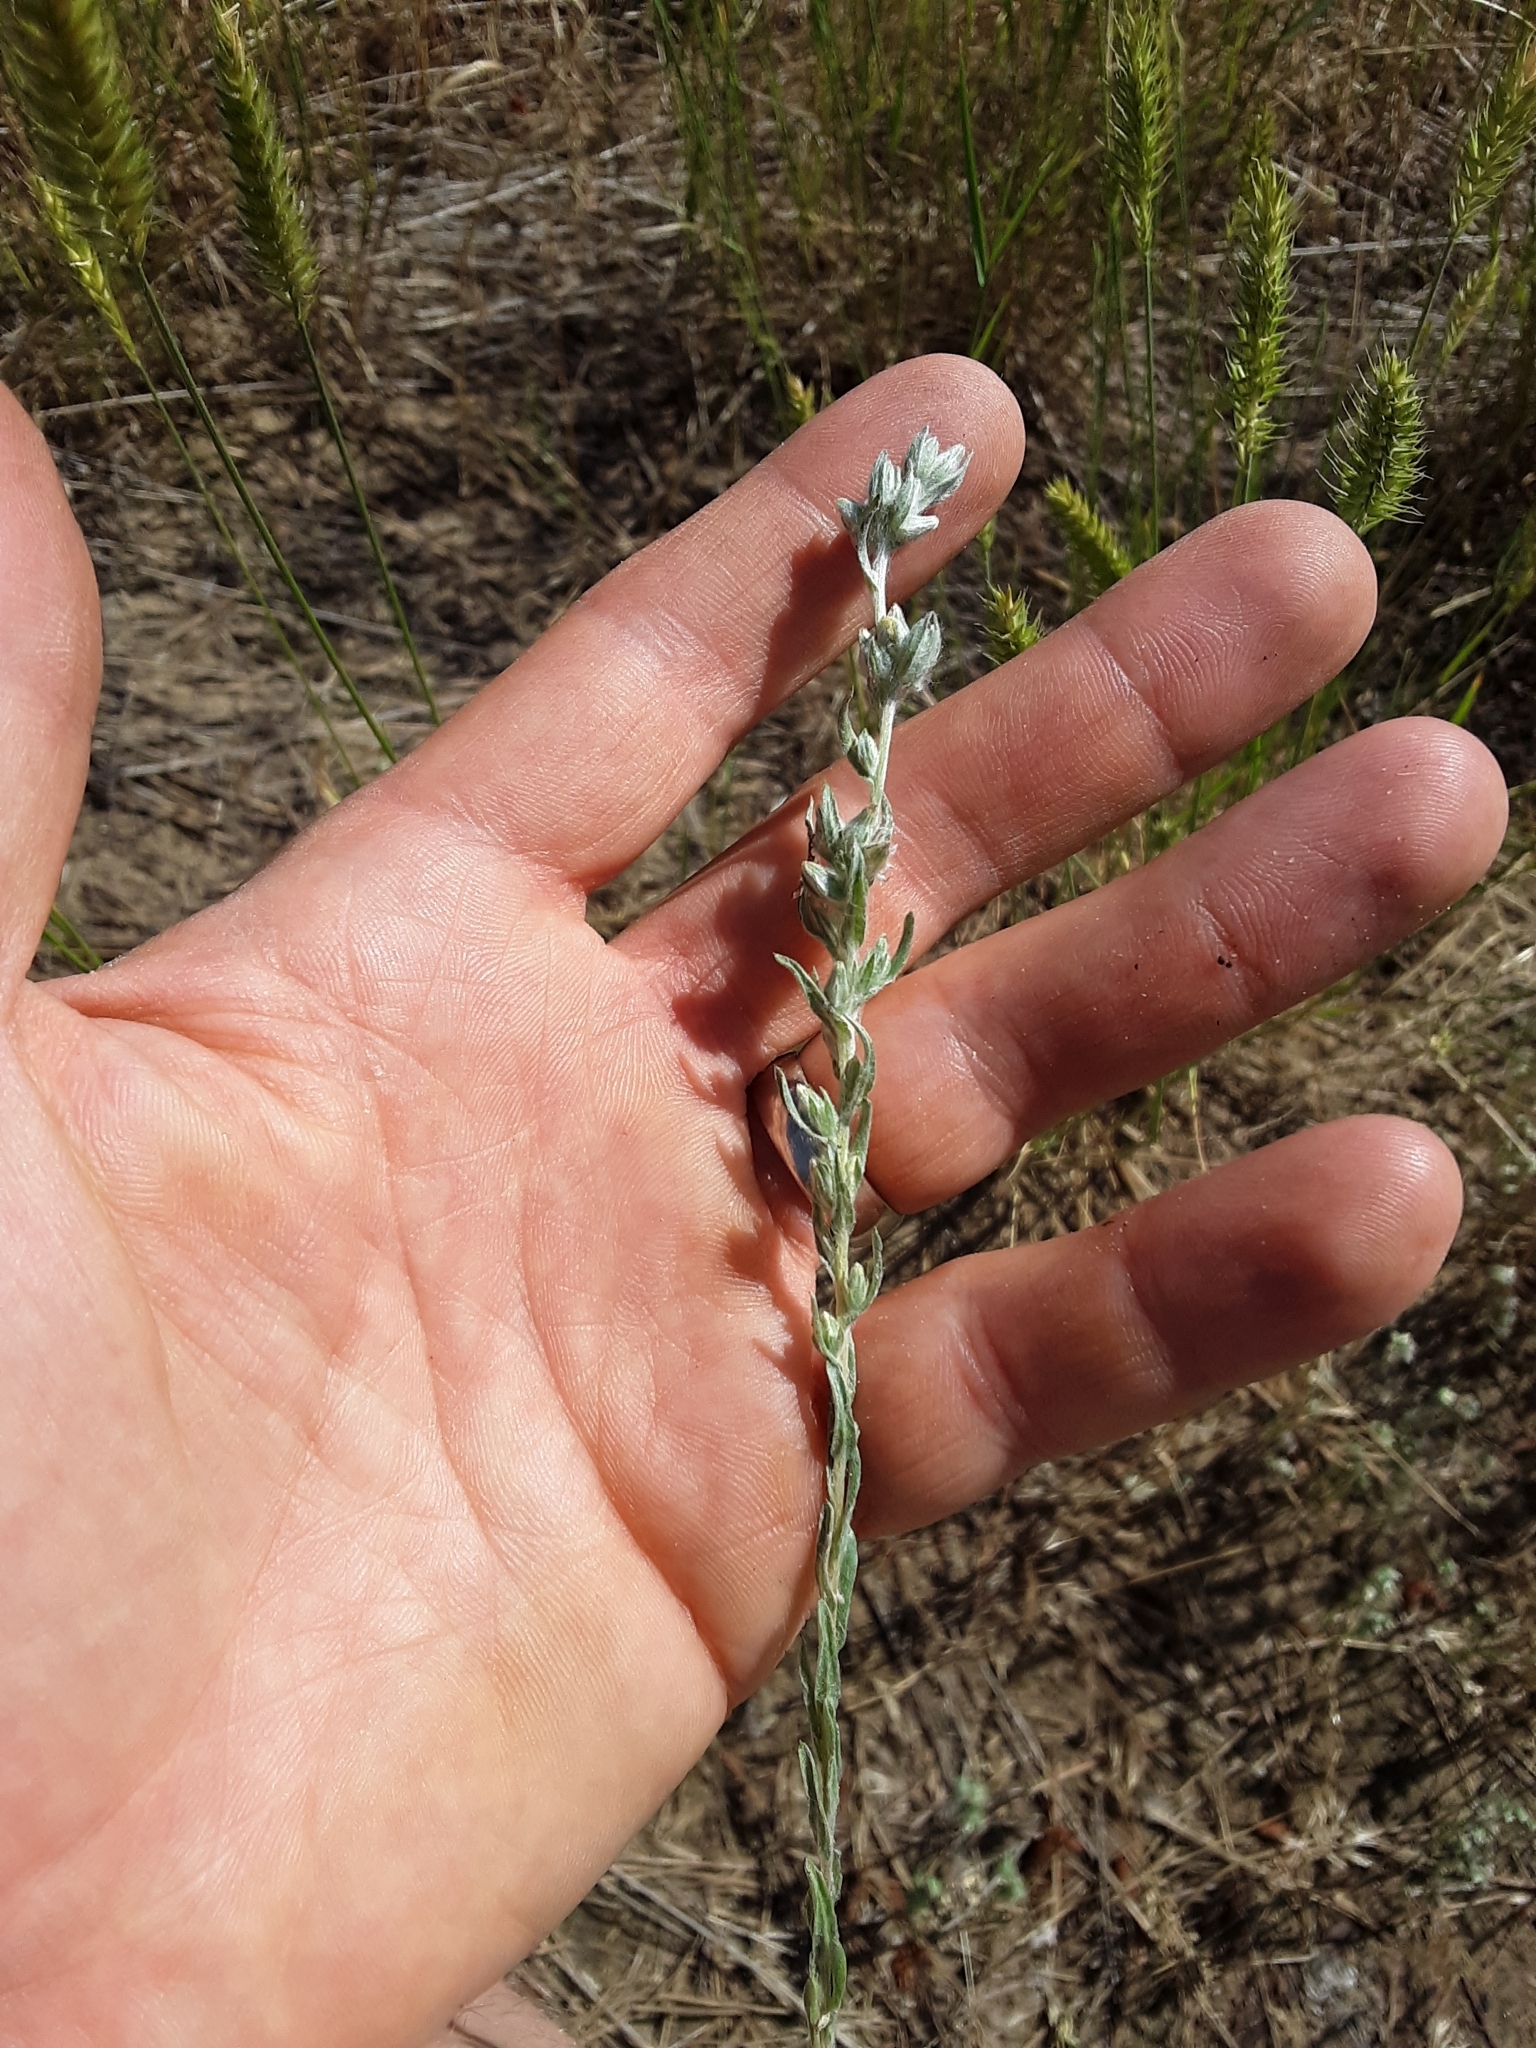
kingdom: Plantae
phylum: Tracheophyta
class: Magnoliopsida
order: Asterales
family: Asteraceae
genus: Filago
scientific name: Filago arvensis
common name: Field cudweed
